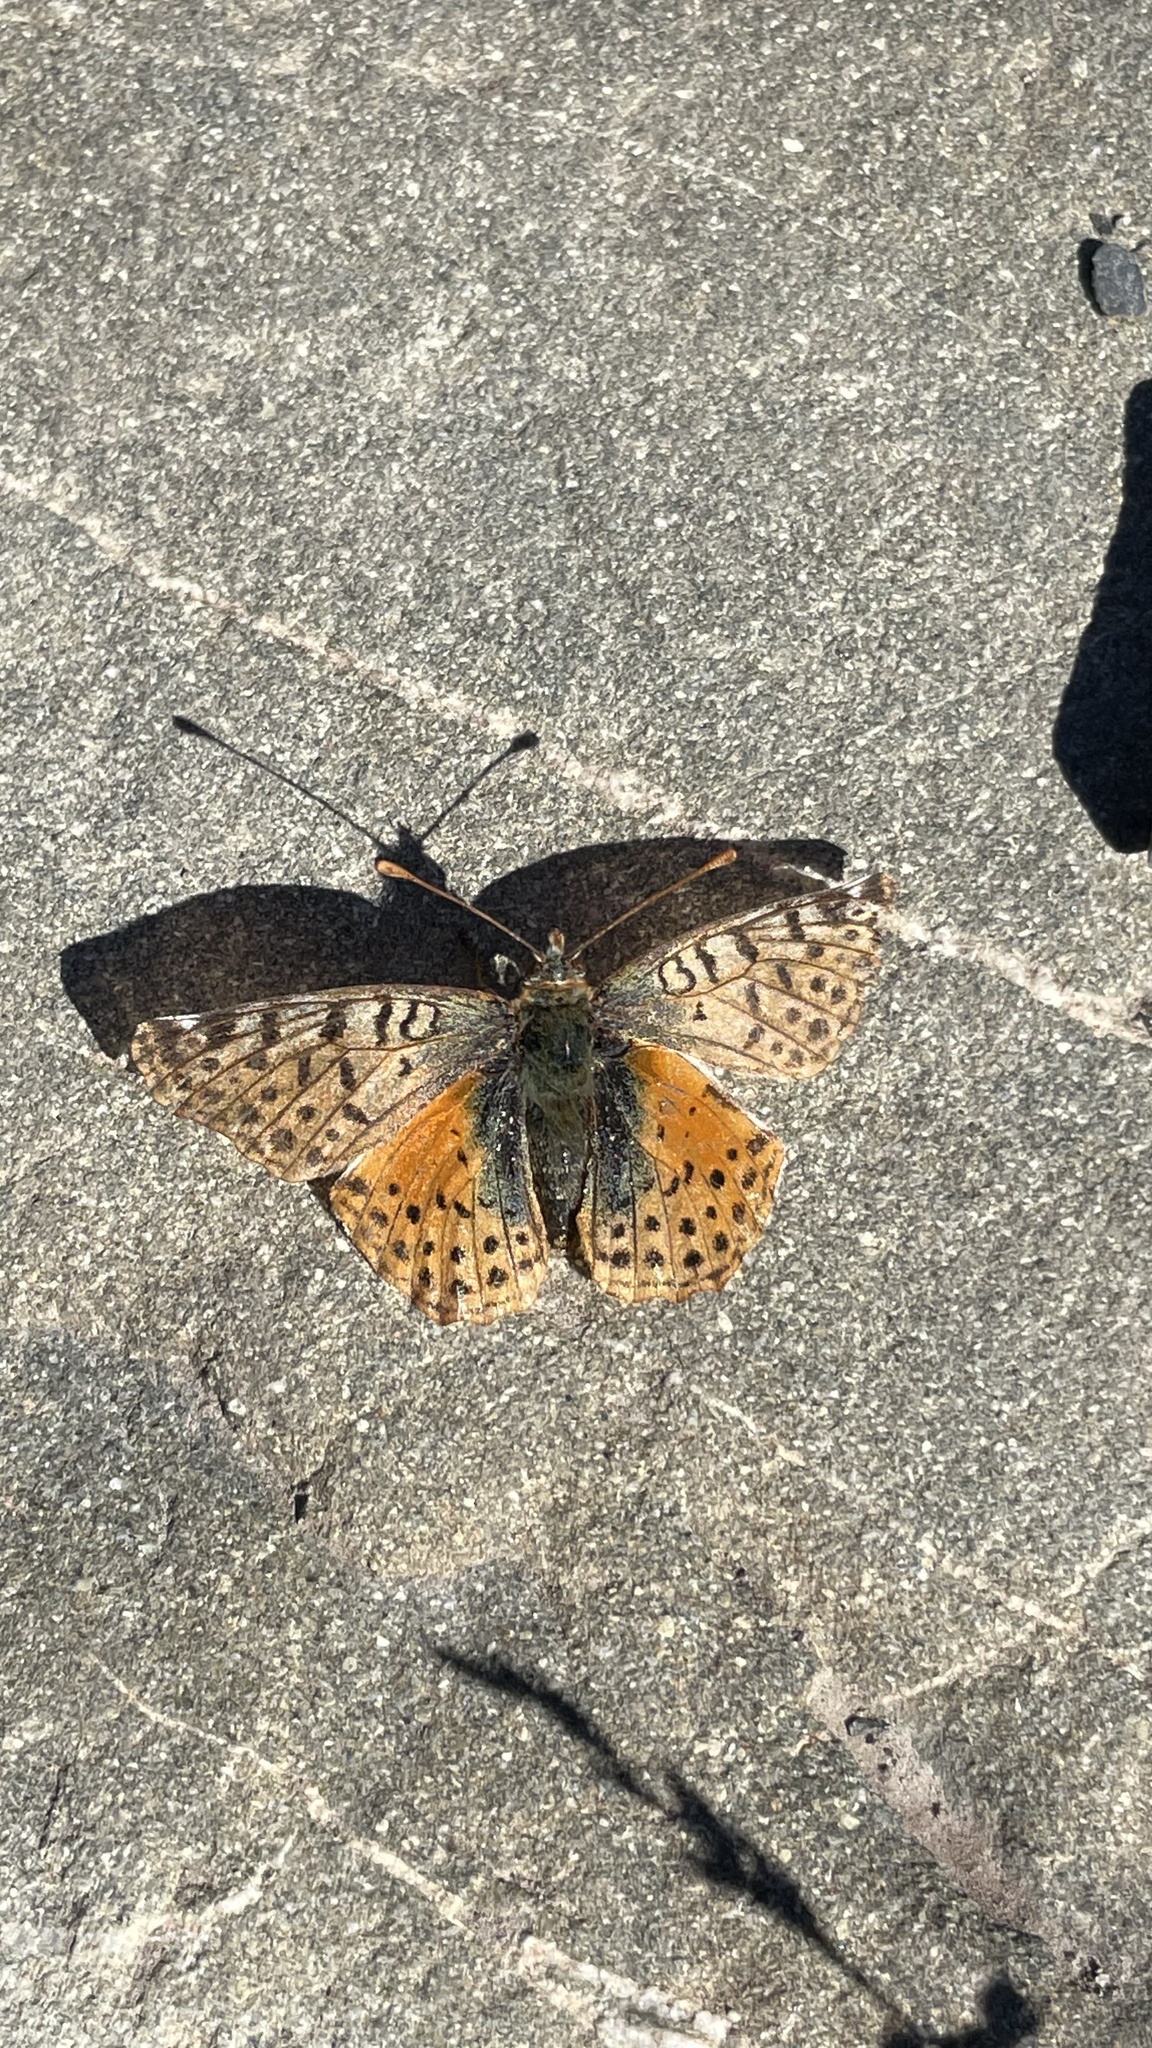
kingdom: Animalia
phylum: Arthropoda
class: Insecta
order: Lepidoptera
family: Nymphalidae
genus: Issoria
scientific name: Issoria Yramea cytheris
